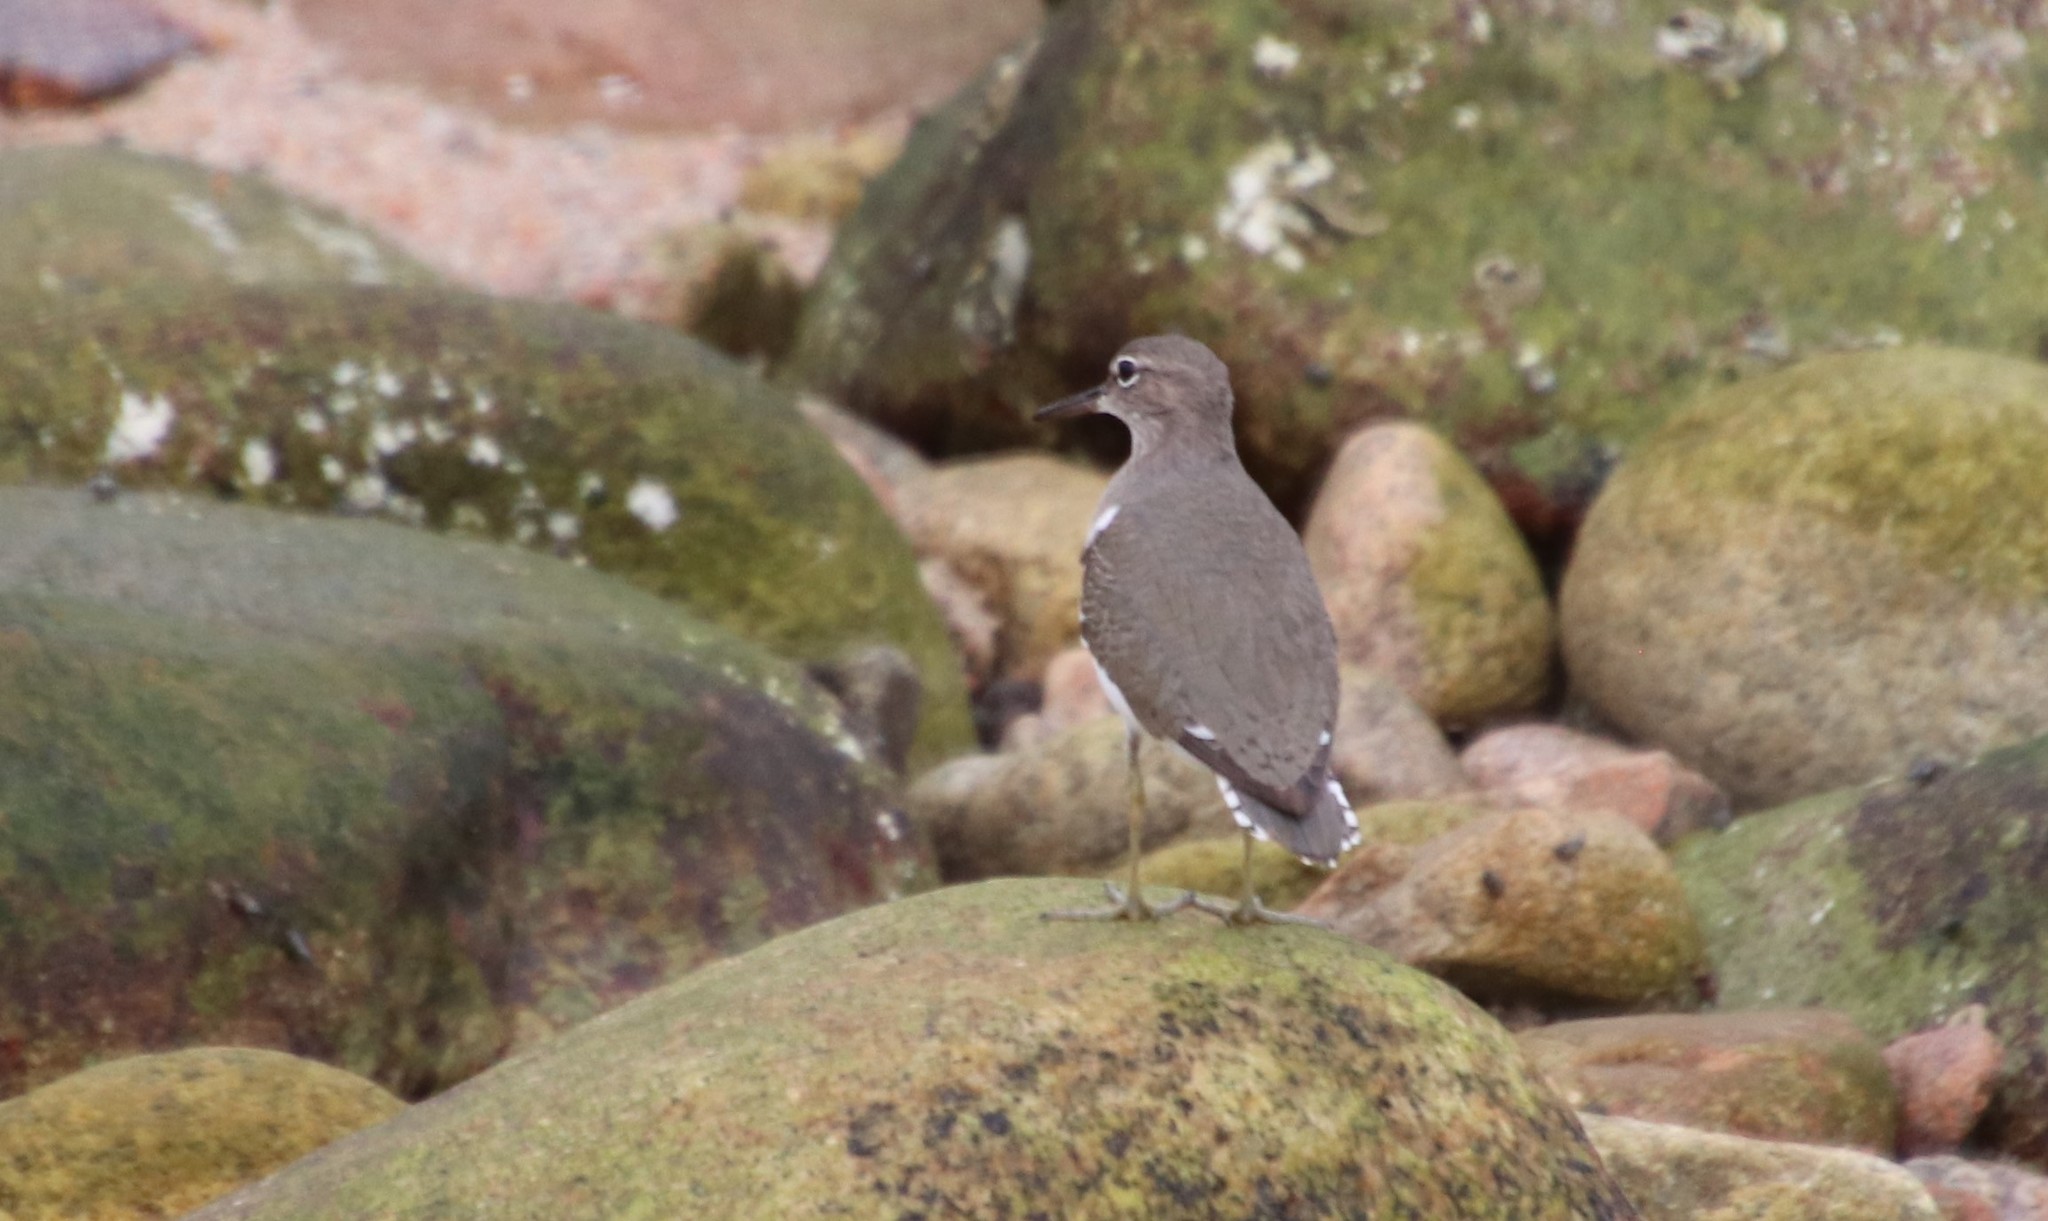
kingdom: Animalia
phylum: Chordata
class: Aves
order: Charadriiformes
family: Scolopacidae
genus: Actitis
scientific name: Actitis macularius
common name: Spotted sandpiper
